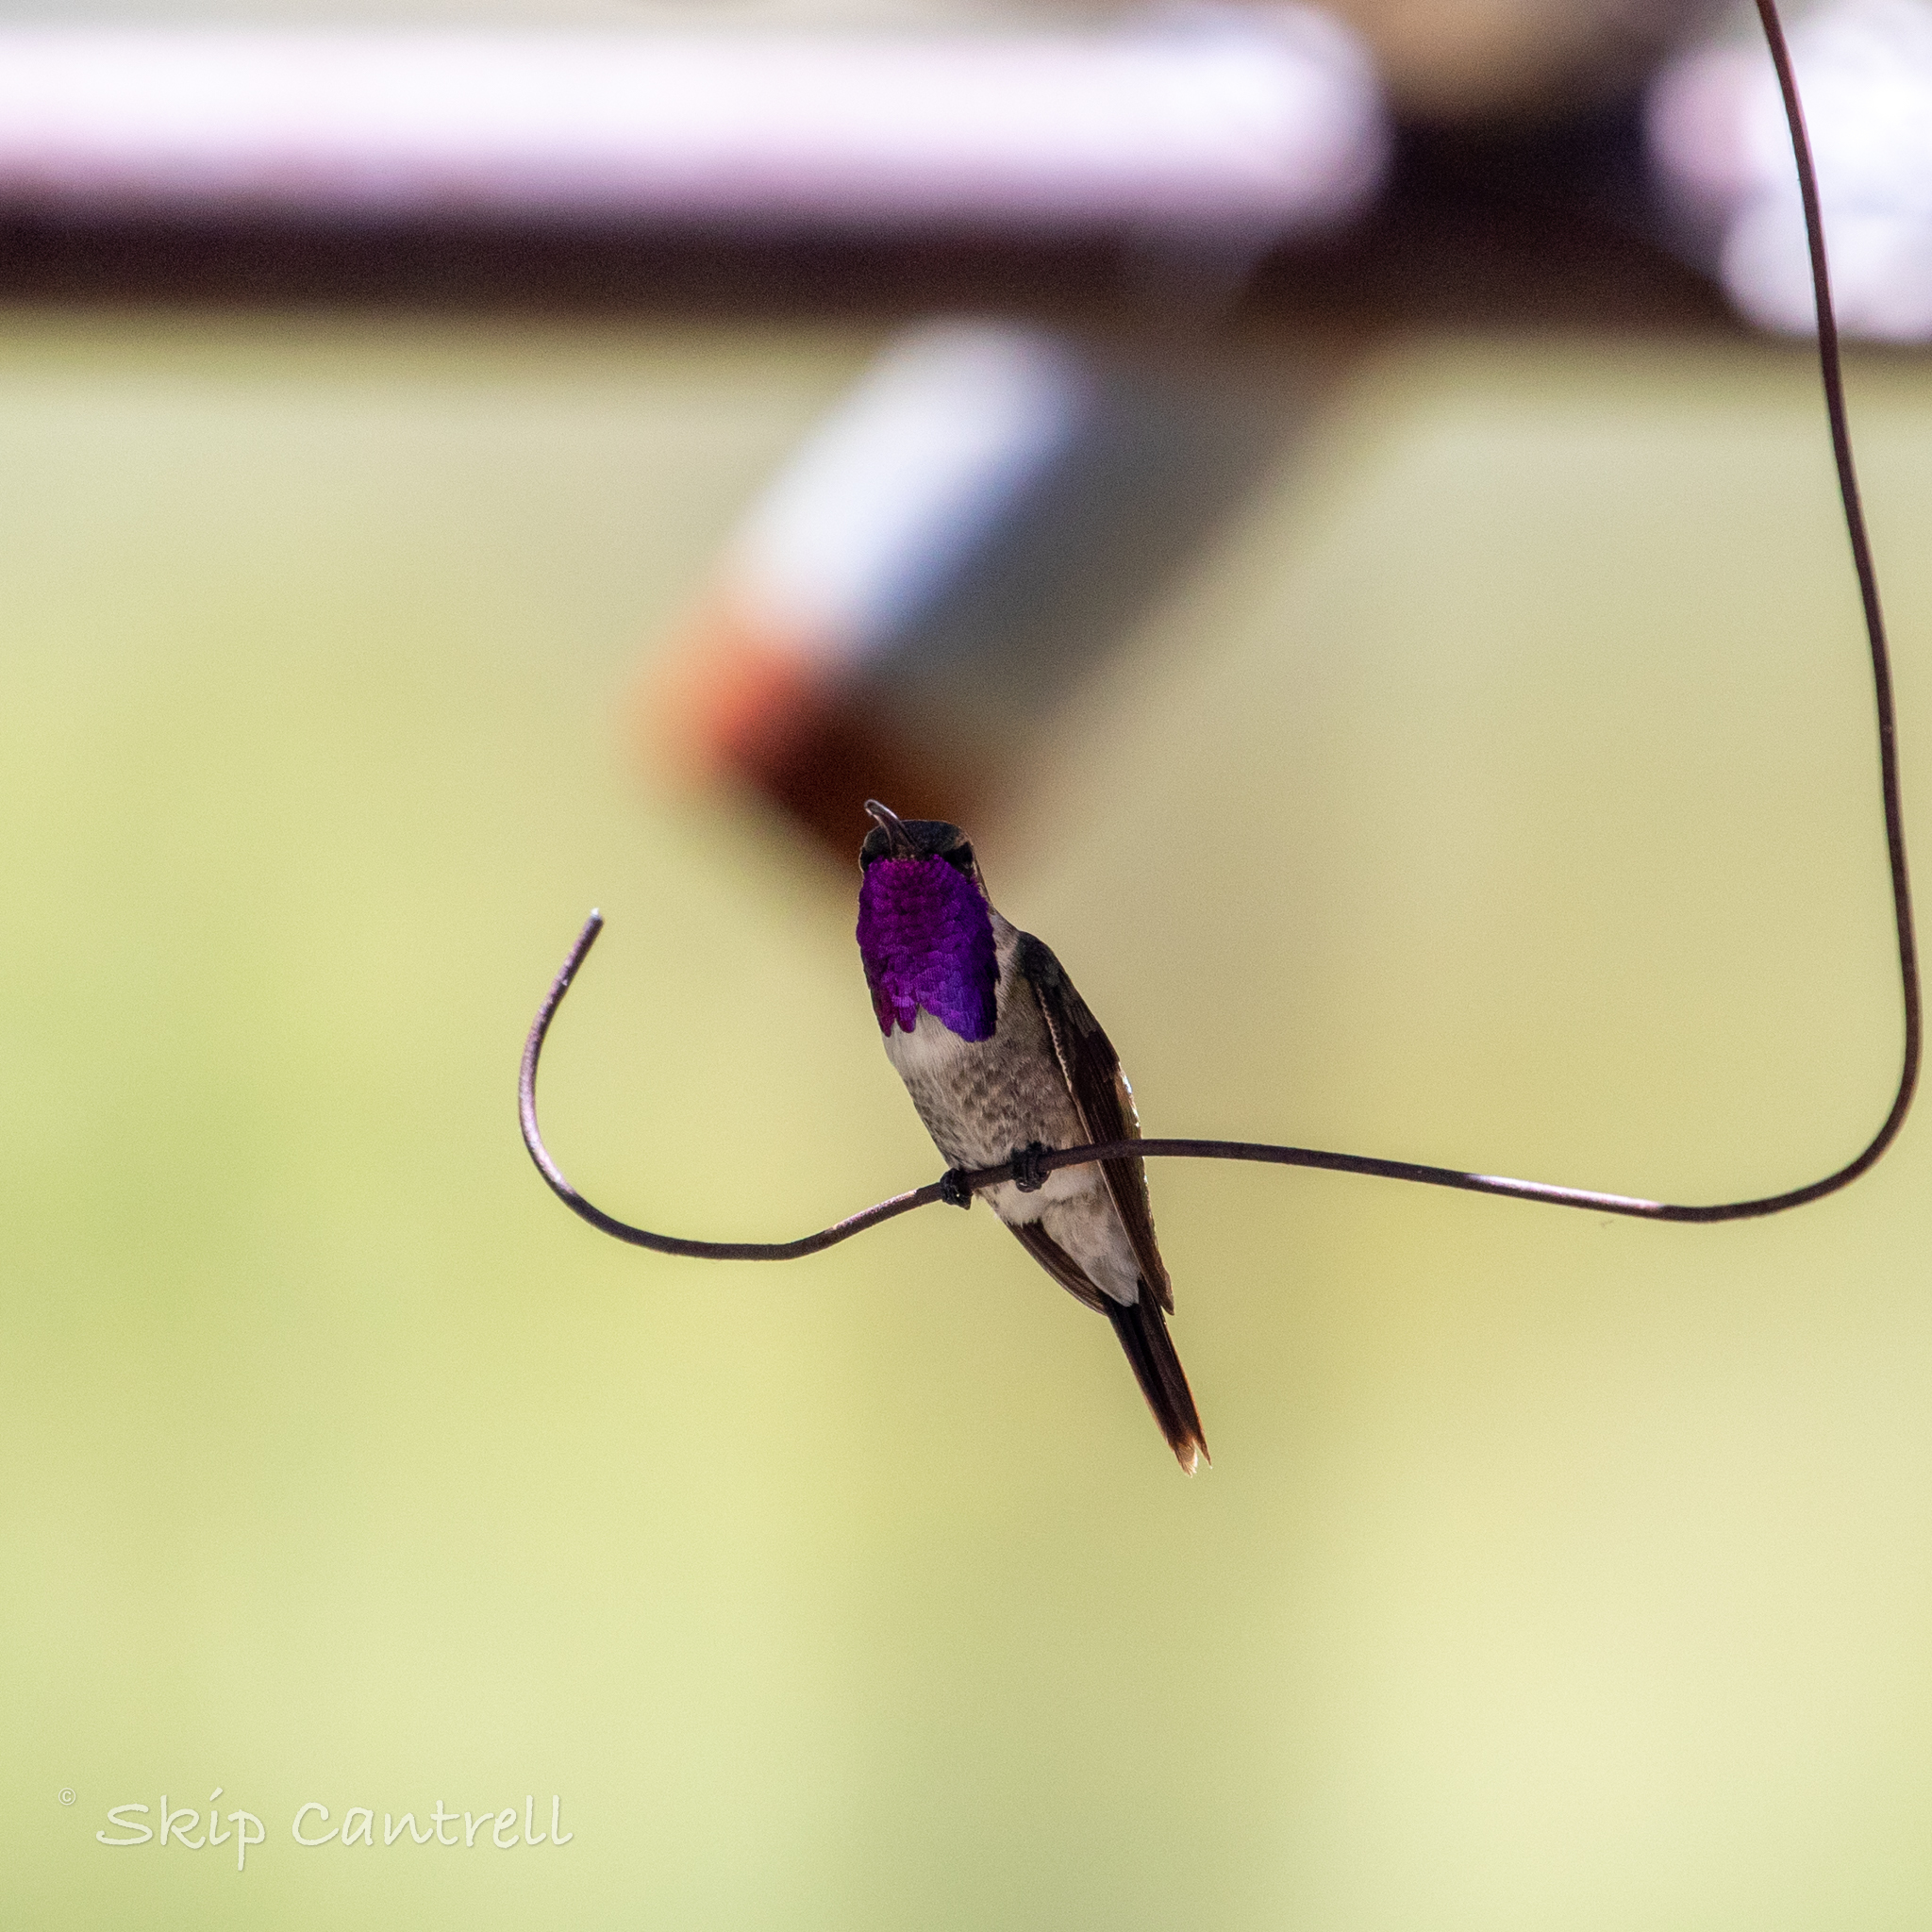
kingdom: Animalia
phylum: Chordata
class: Aves
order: Apodiformes
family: Trochilidae
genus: Calothorax
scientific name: Calothorax lucifer
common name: Lucifer sheartail
